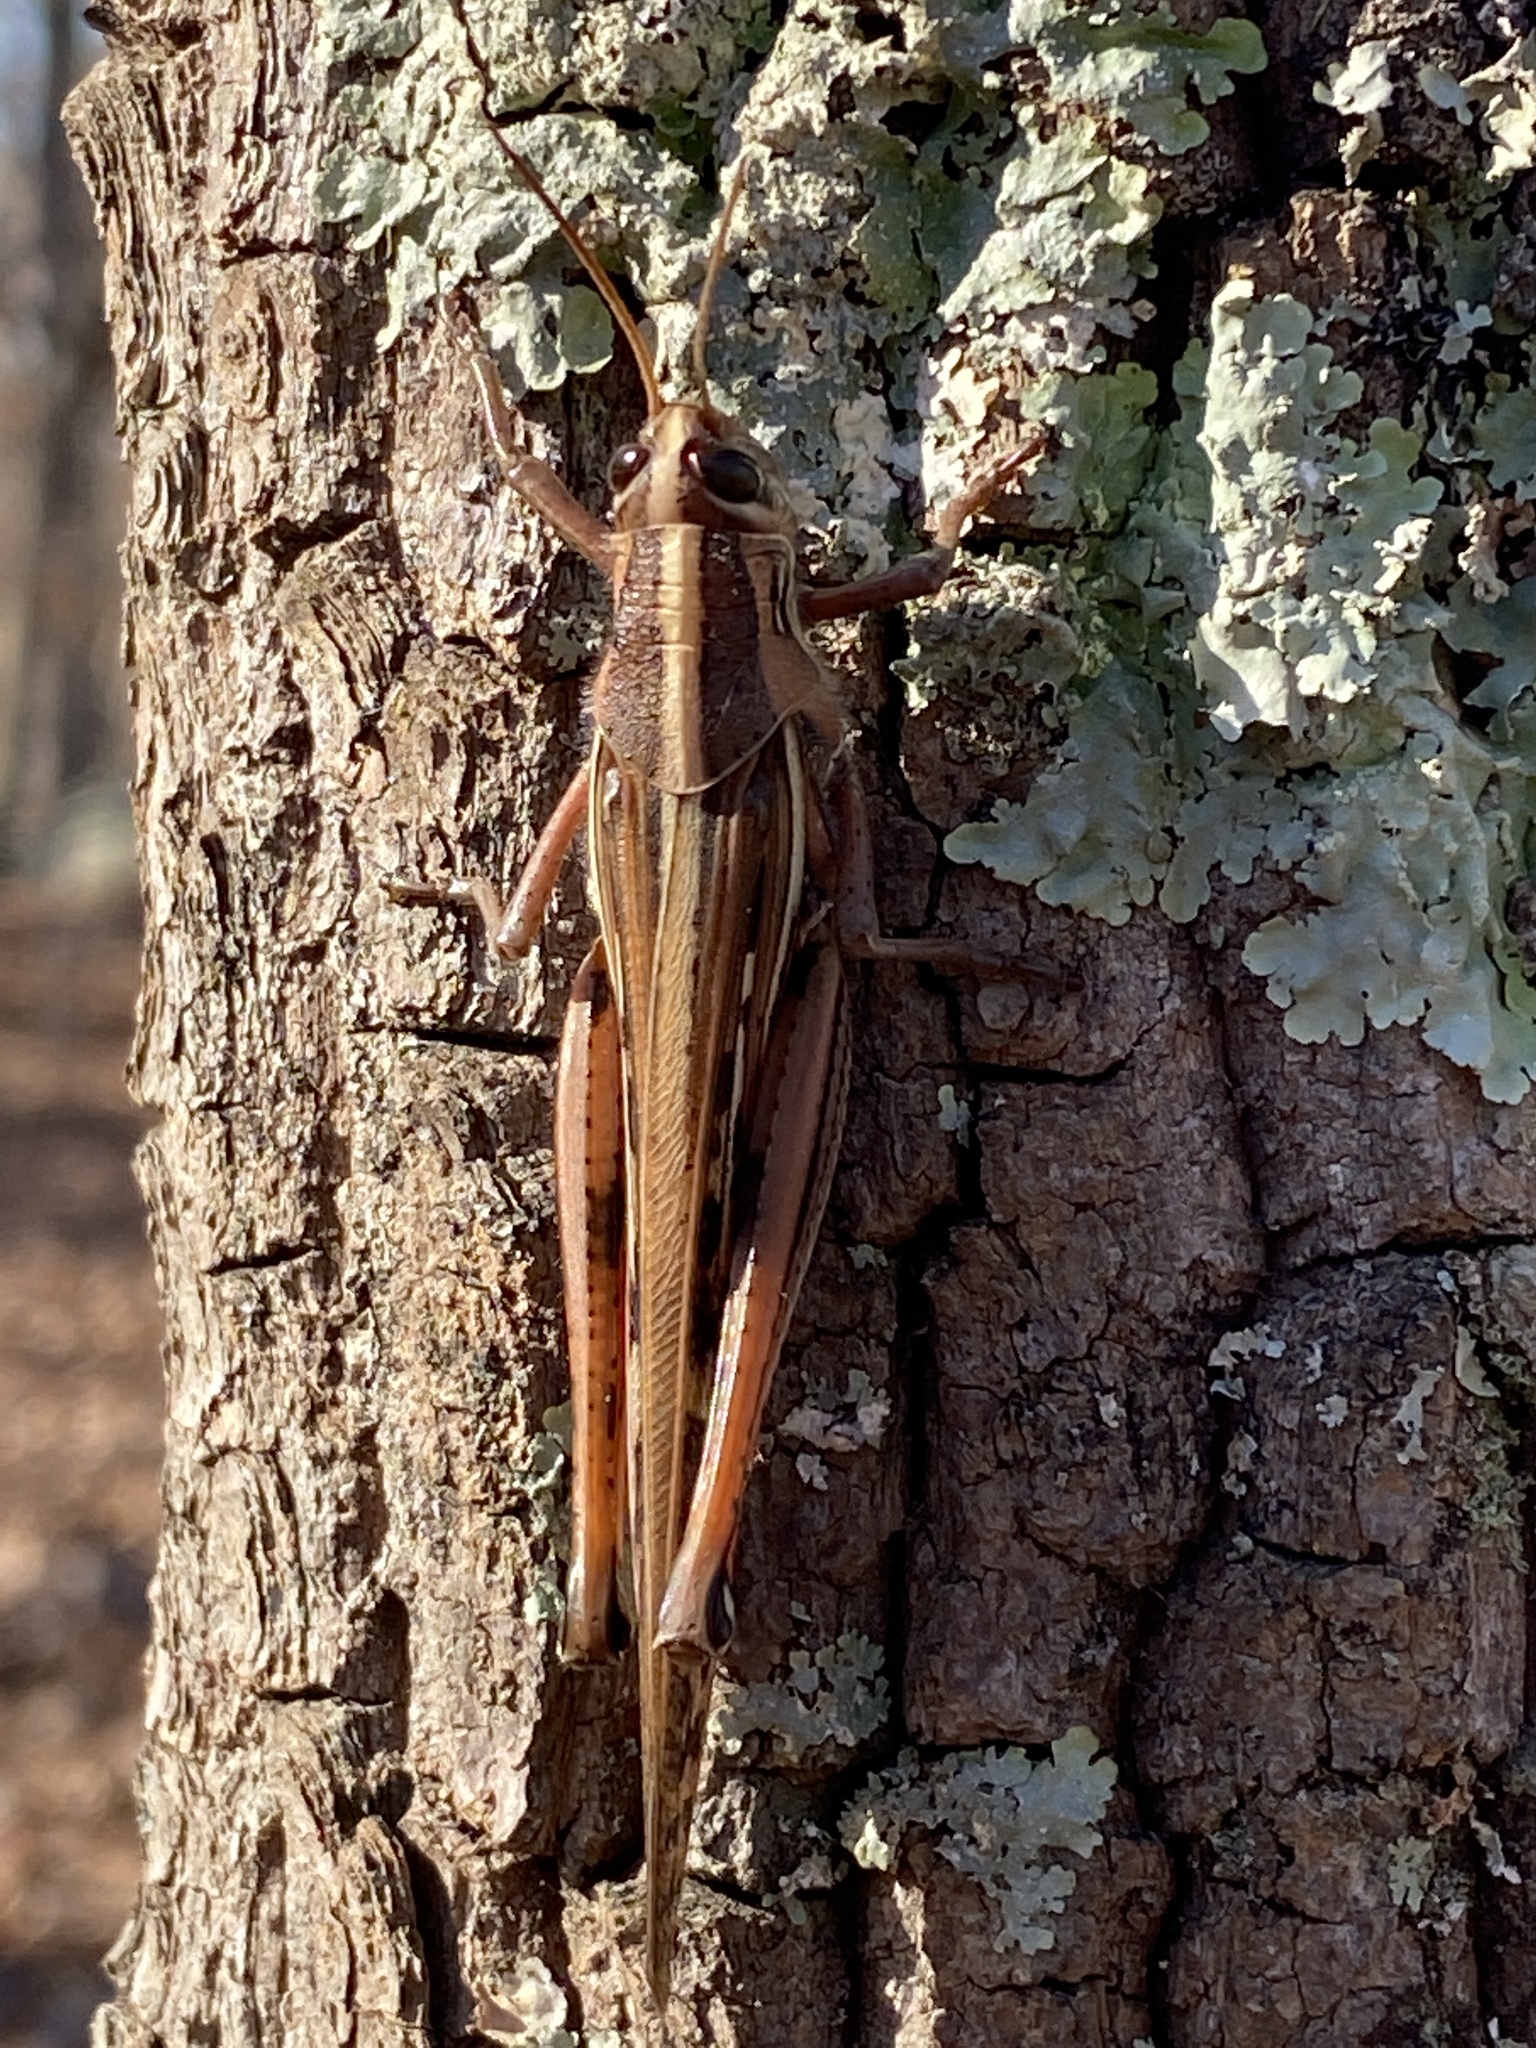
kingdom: Animalia
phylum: Arthropoda
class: Insecta
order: Orthoptera
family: Acrididae
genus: Schistocerca
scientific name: Schistocerca americana
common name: American bird locust
